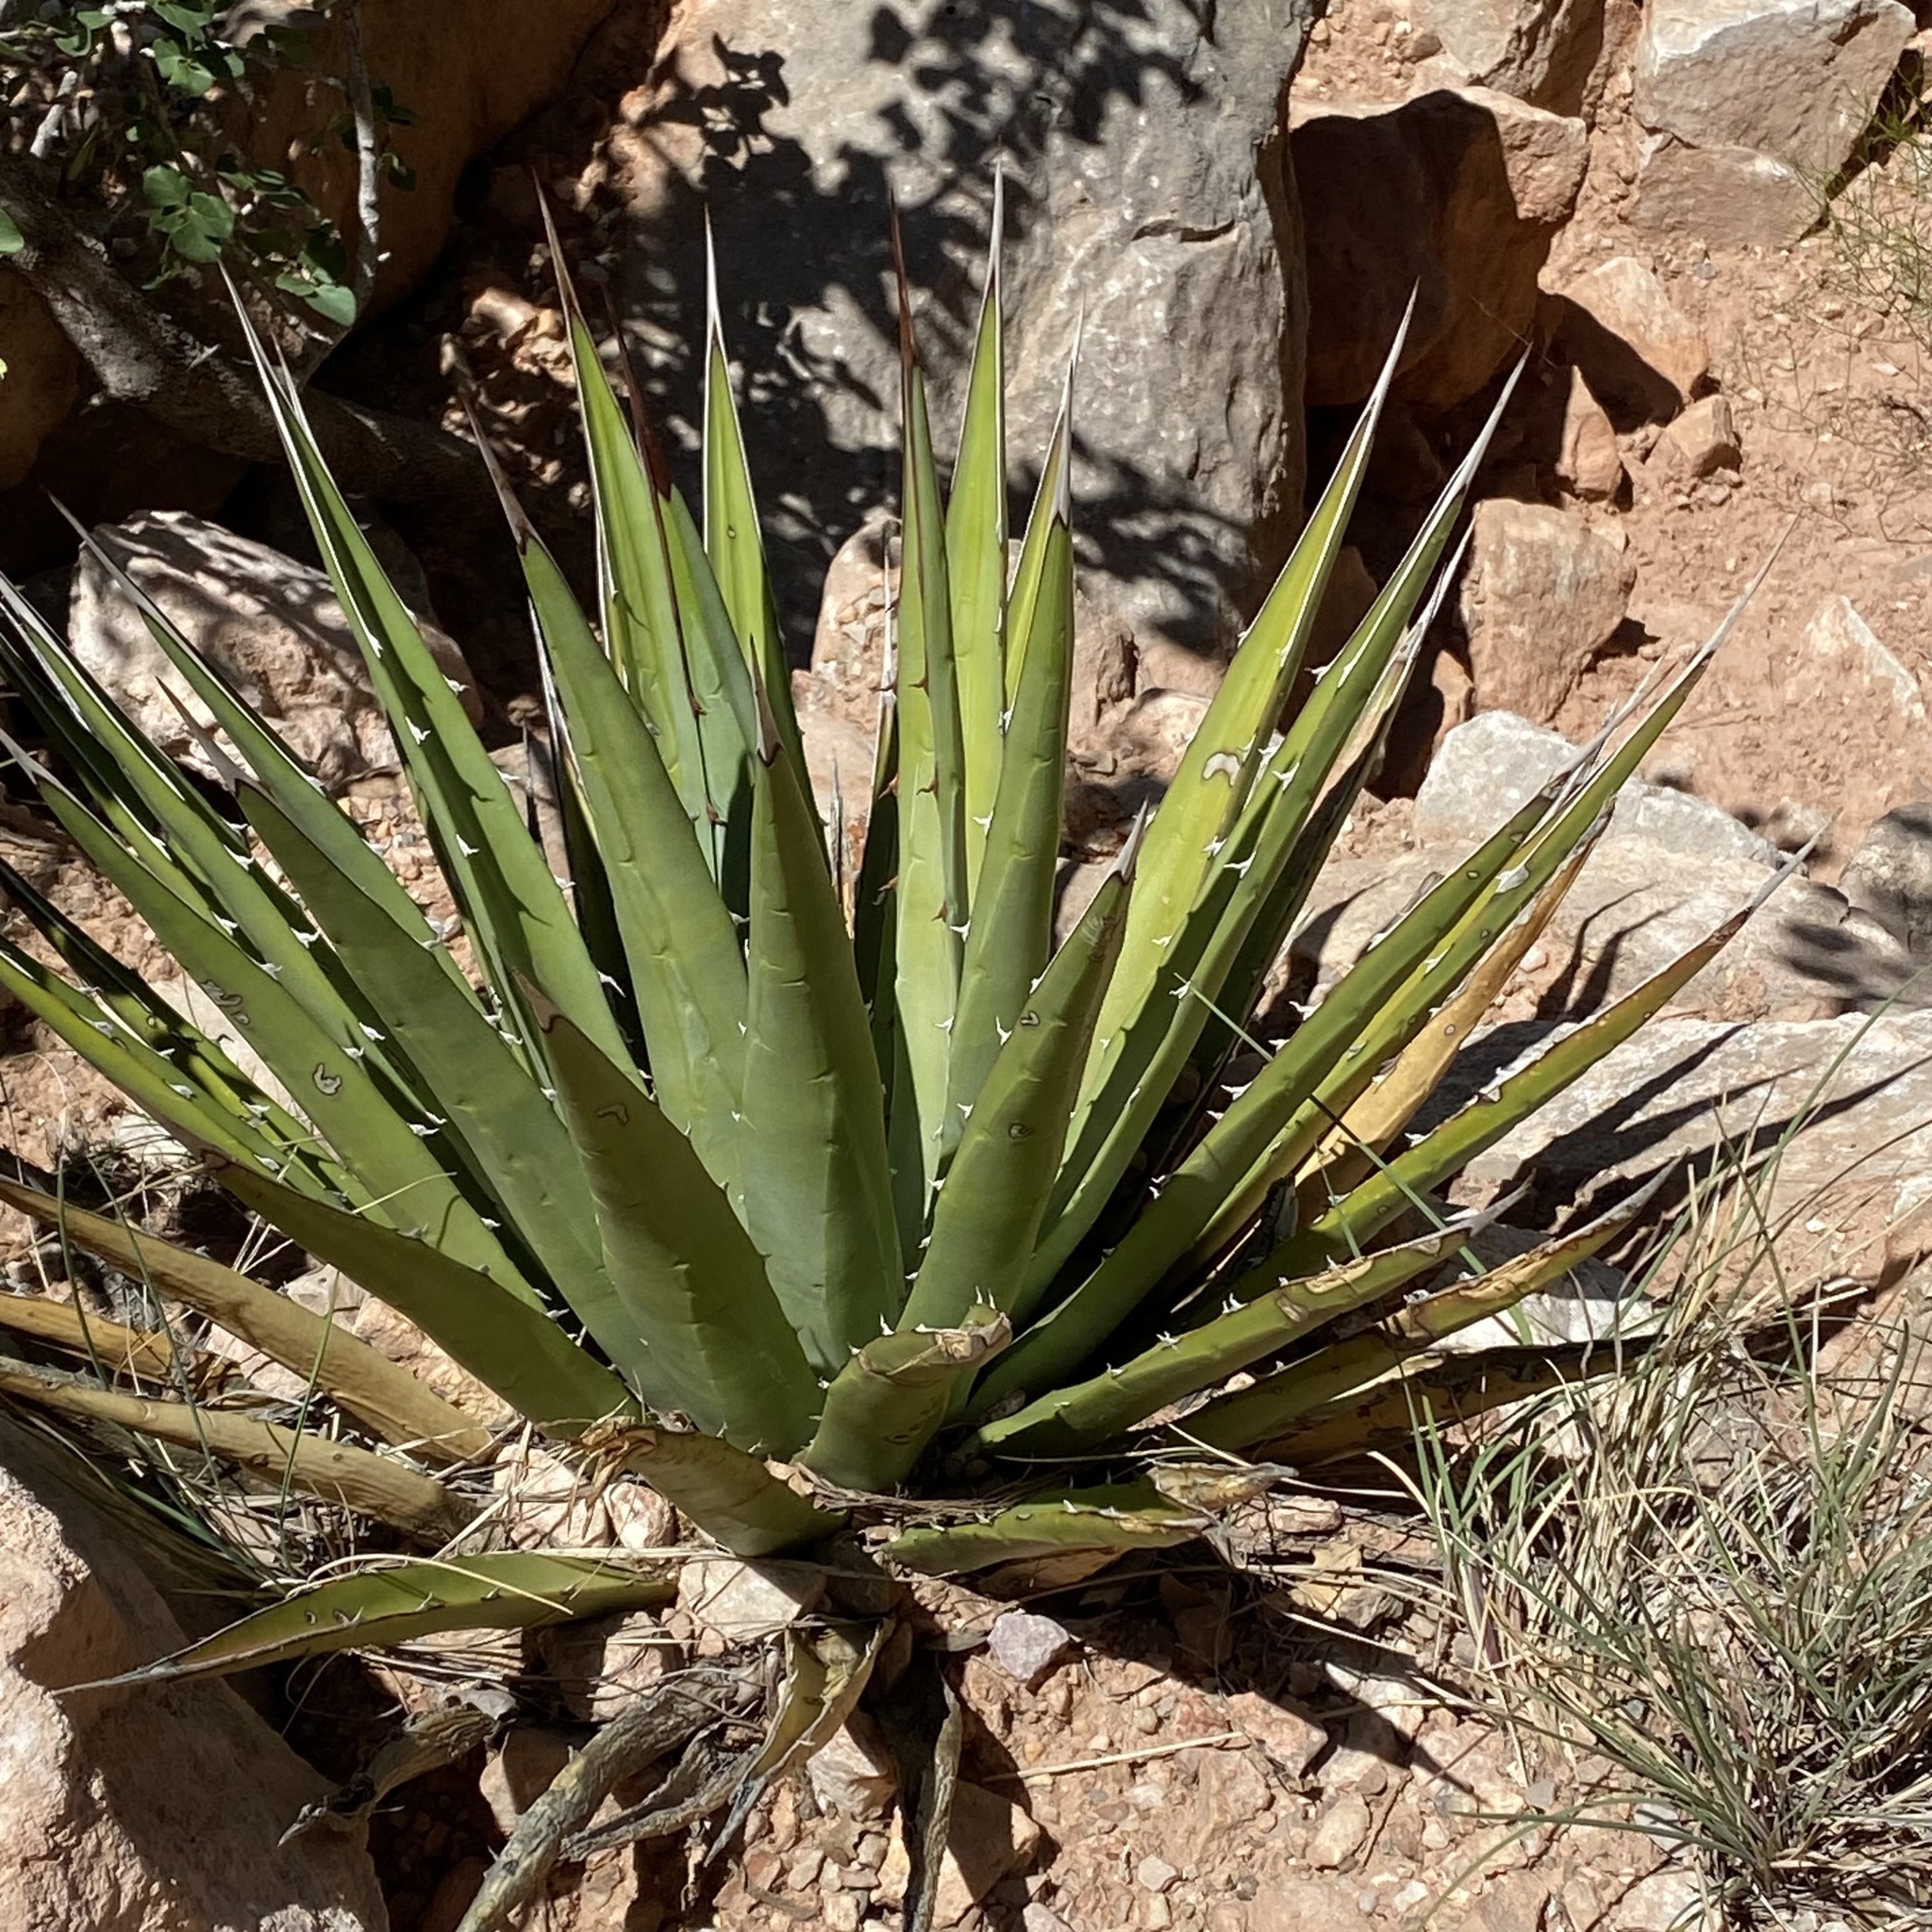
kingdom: Plantae
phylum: Tracheophyta
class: Liliopsida
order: Asparagales
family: Asparagaceae
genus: Agave
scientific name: Agave utahensis
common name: Utah agave
